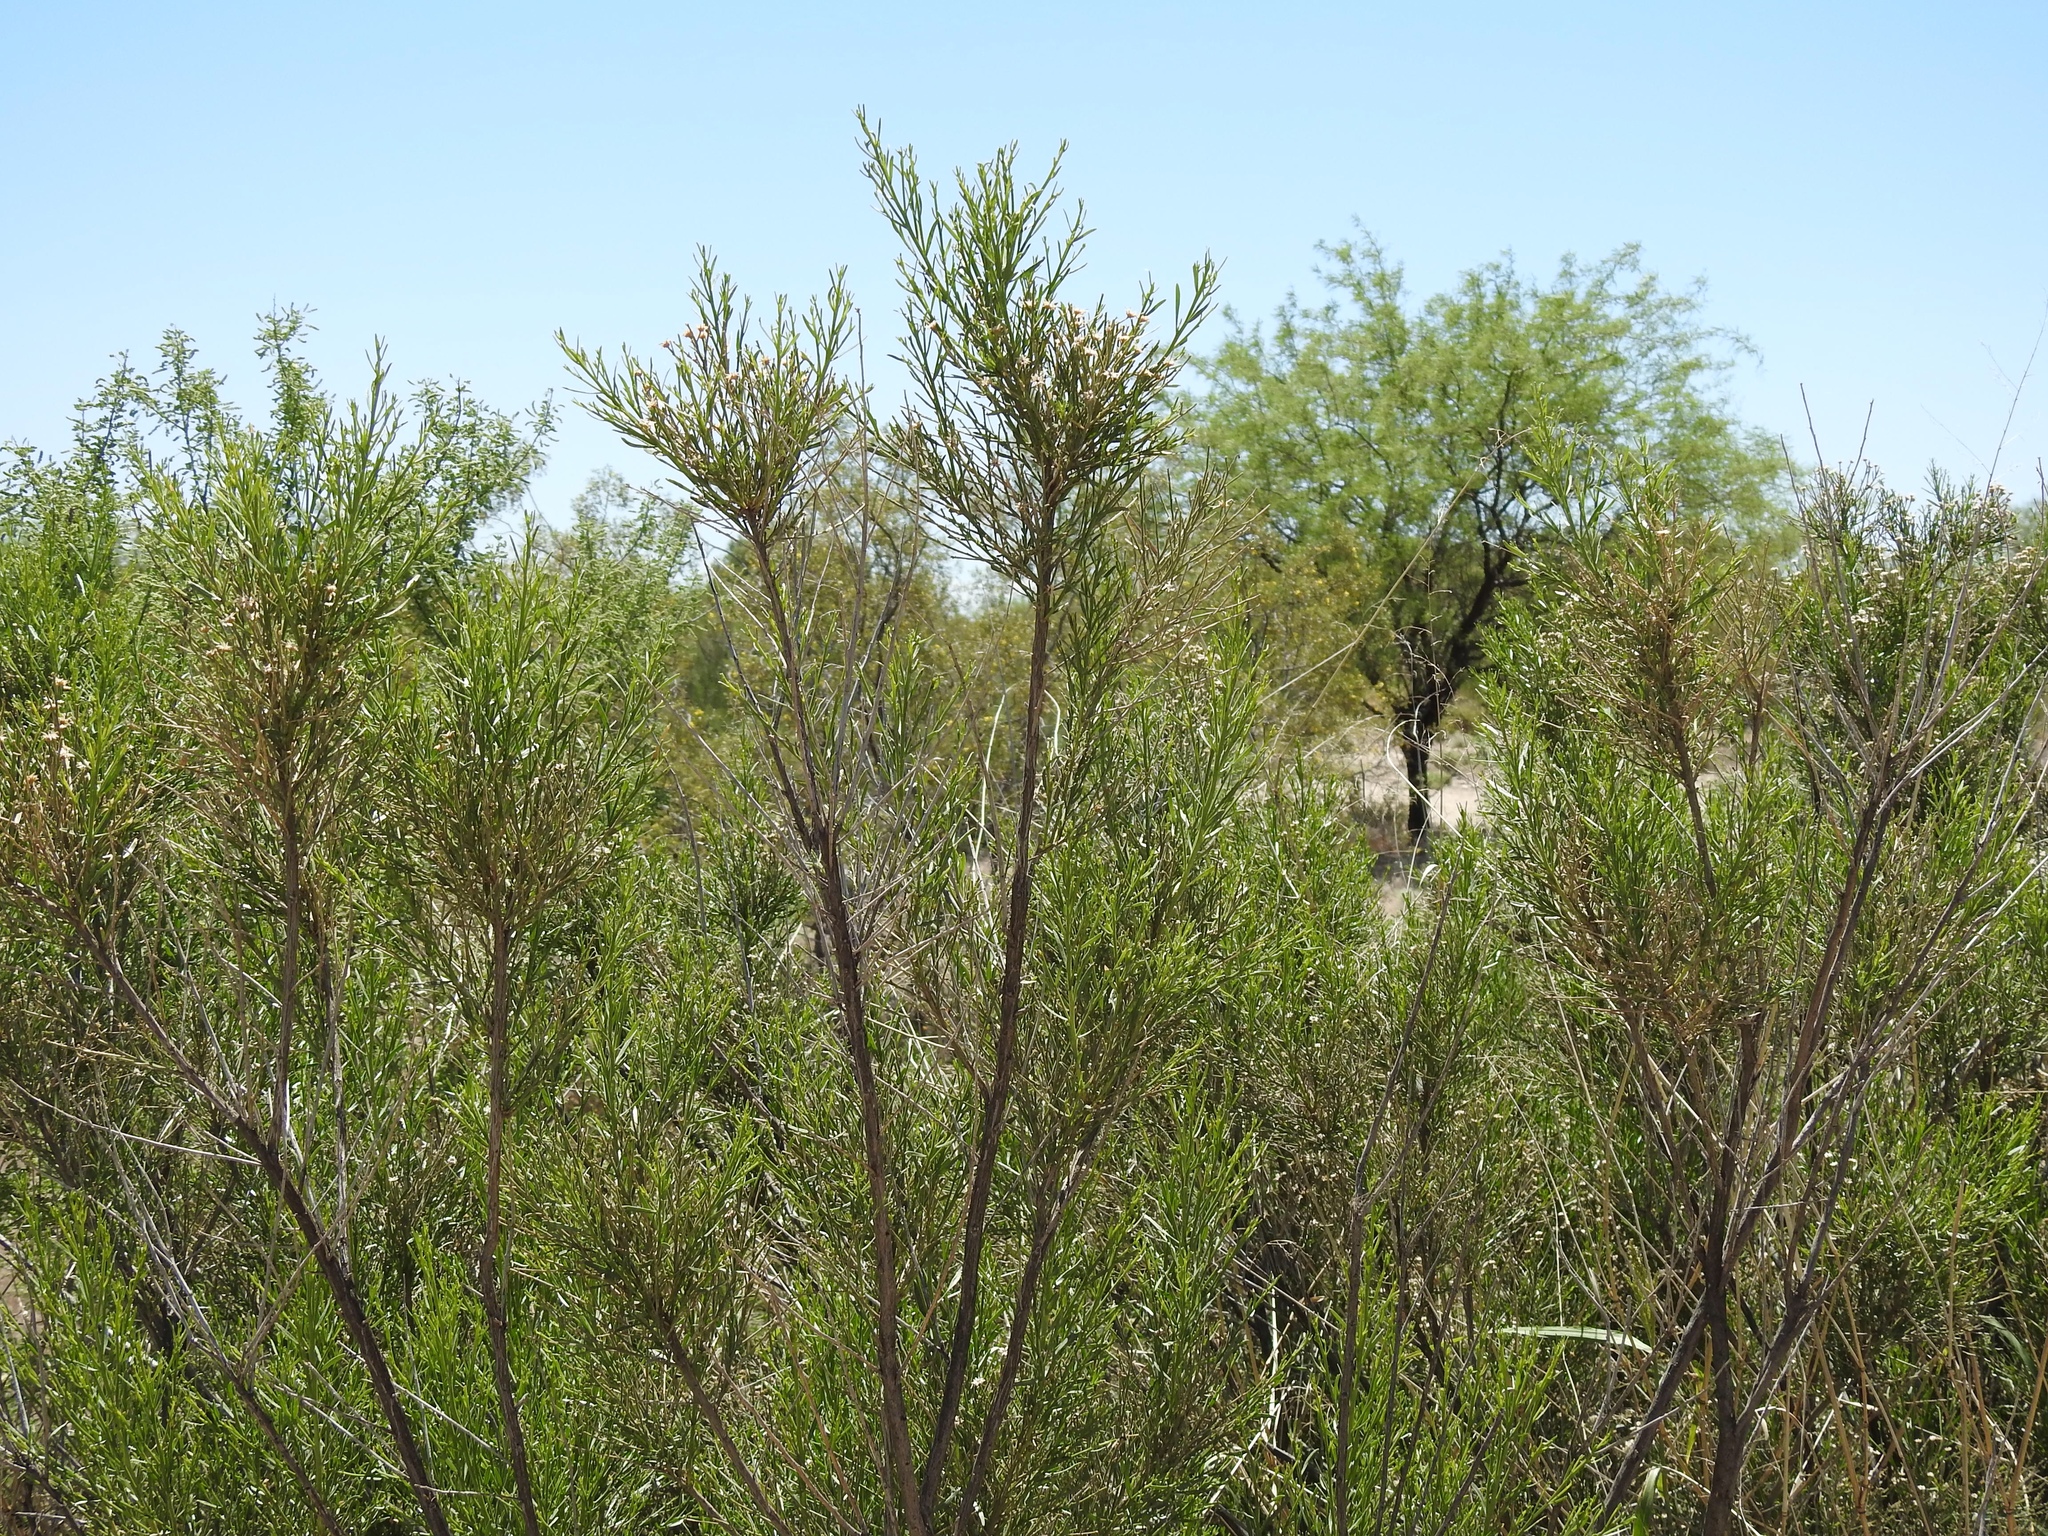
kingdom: Plantae
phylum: Tracheophyta
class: Magnoliopsida
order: Asterales
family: Asteraceae
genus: Baccharis
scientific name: Baccharis sarothroides
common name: Desert-broom
